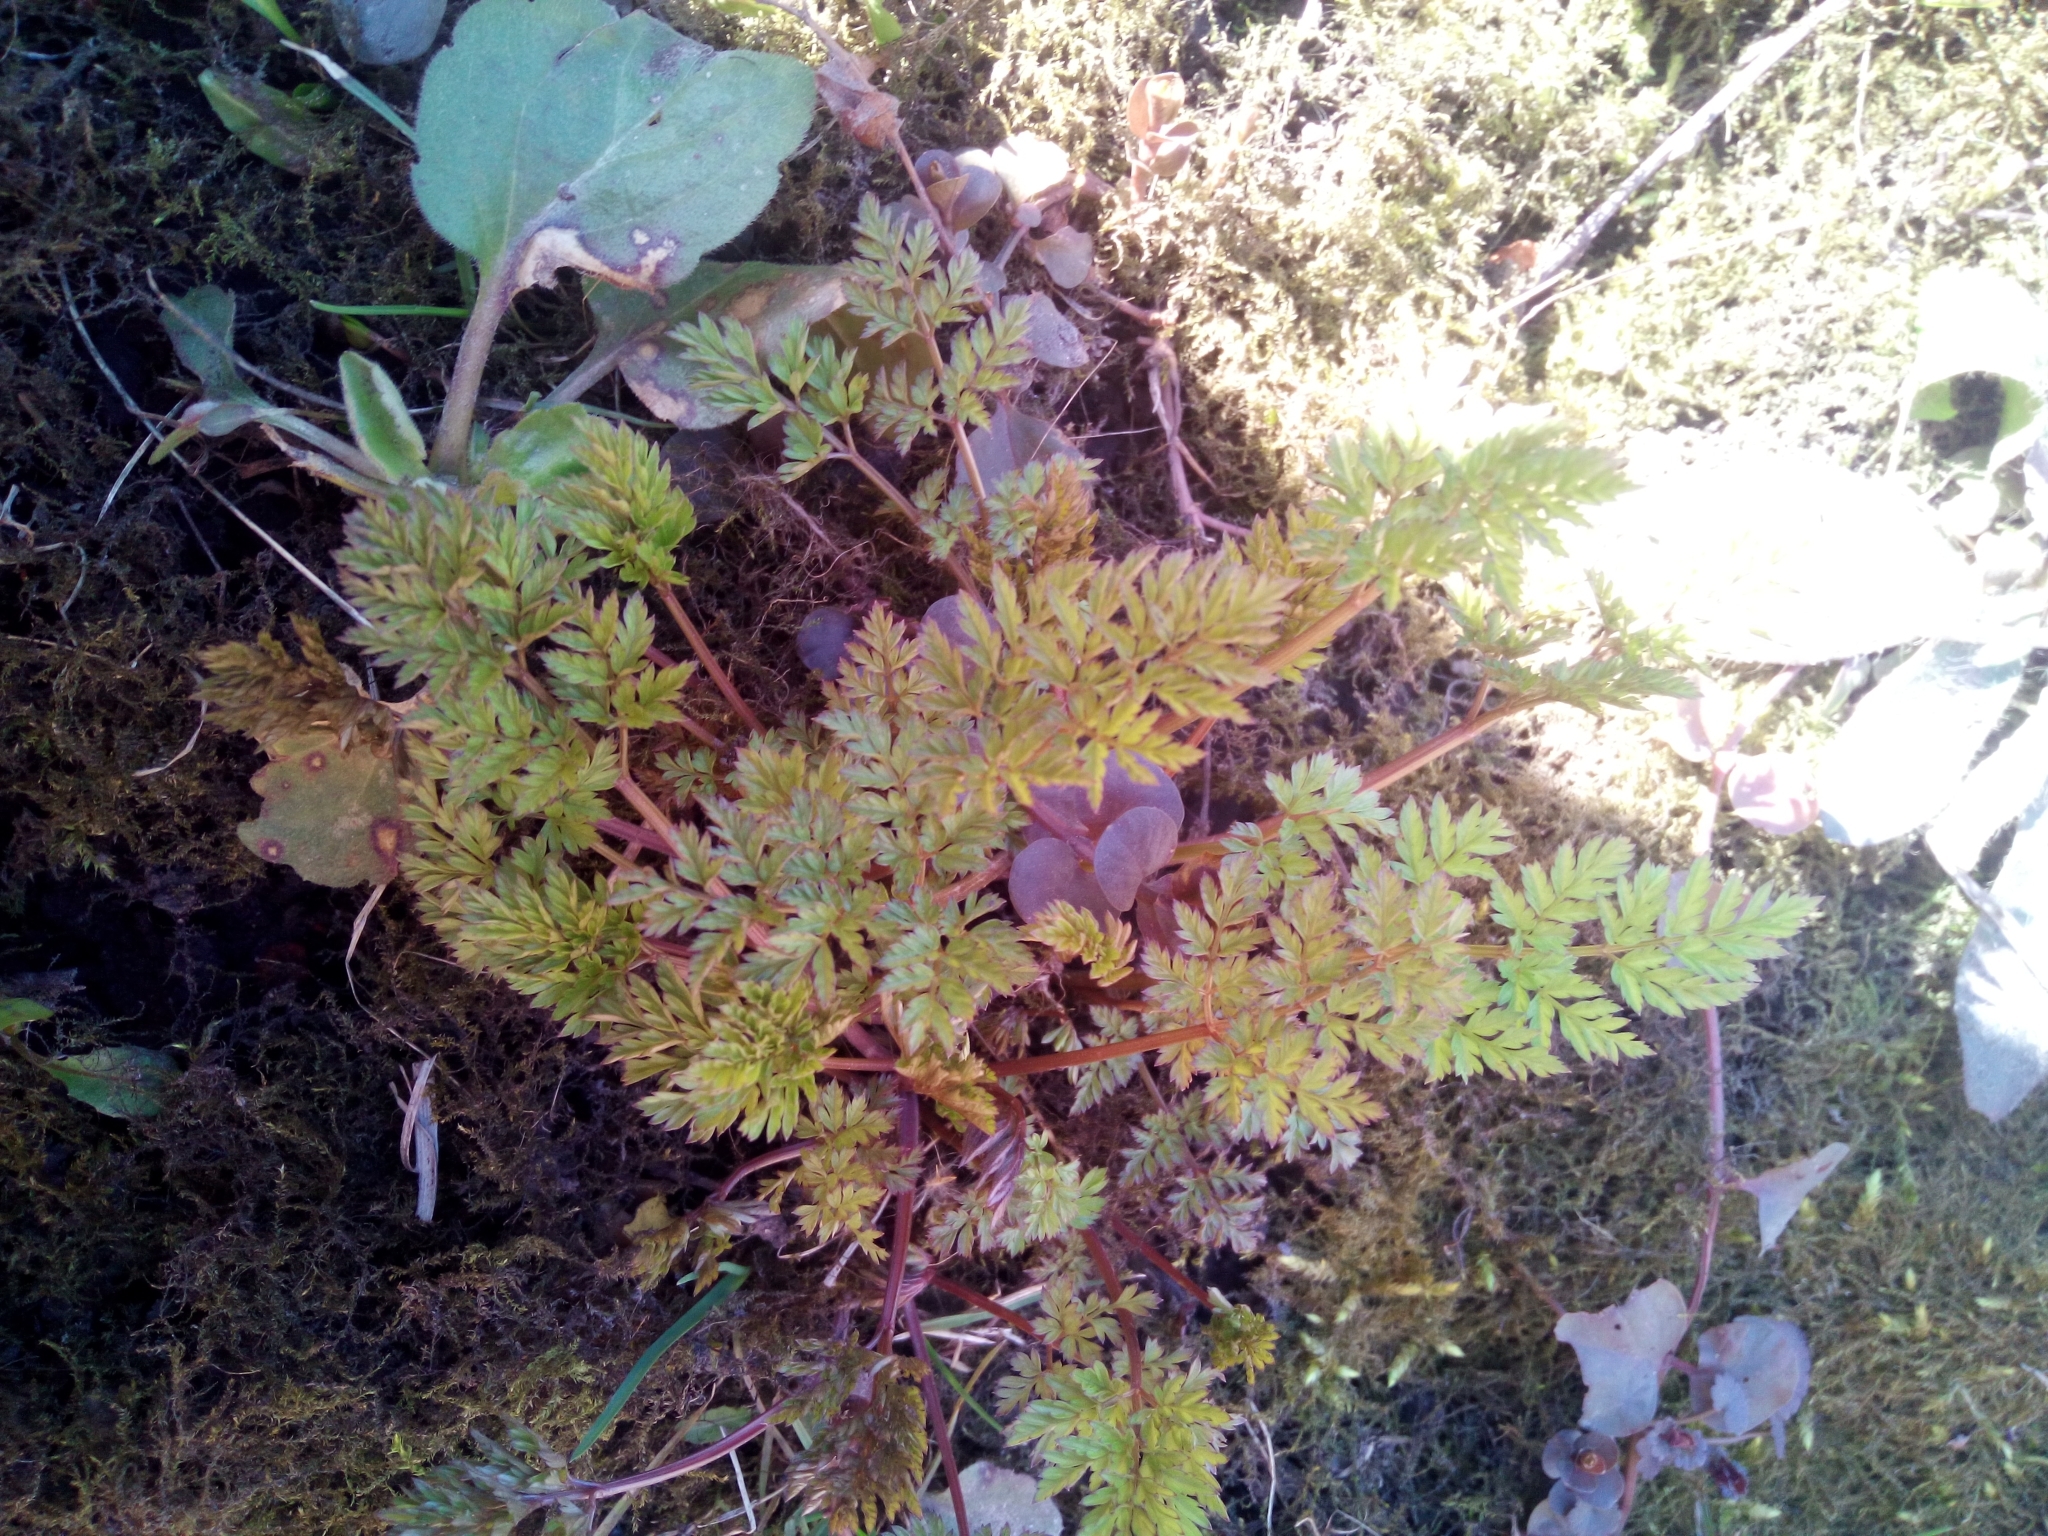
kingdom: Plantae
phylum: Tracheophyta
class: Magnoliopsida
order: Apiales
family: Apiaceae
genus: Anthriscus
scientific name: Anthriscus sylvestris
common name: Cow parsley
